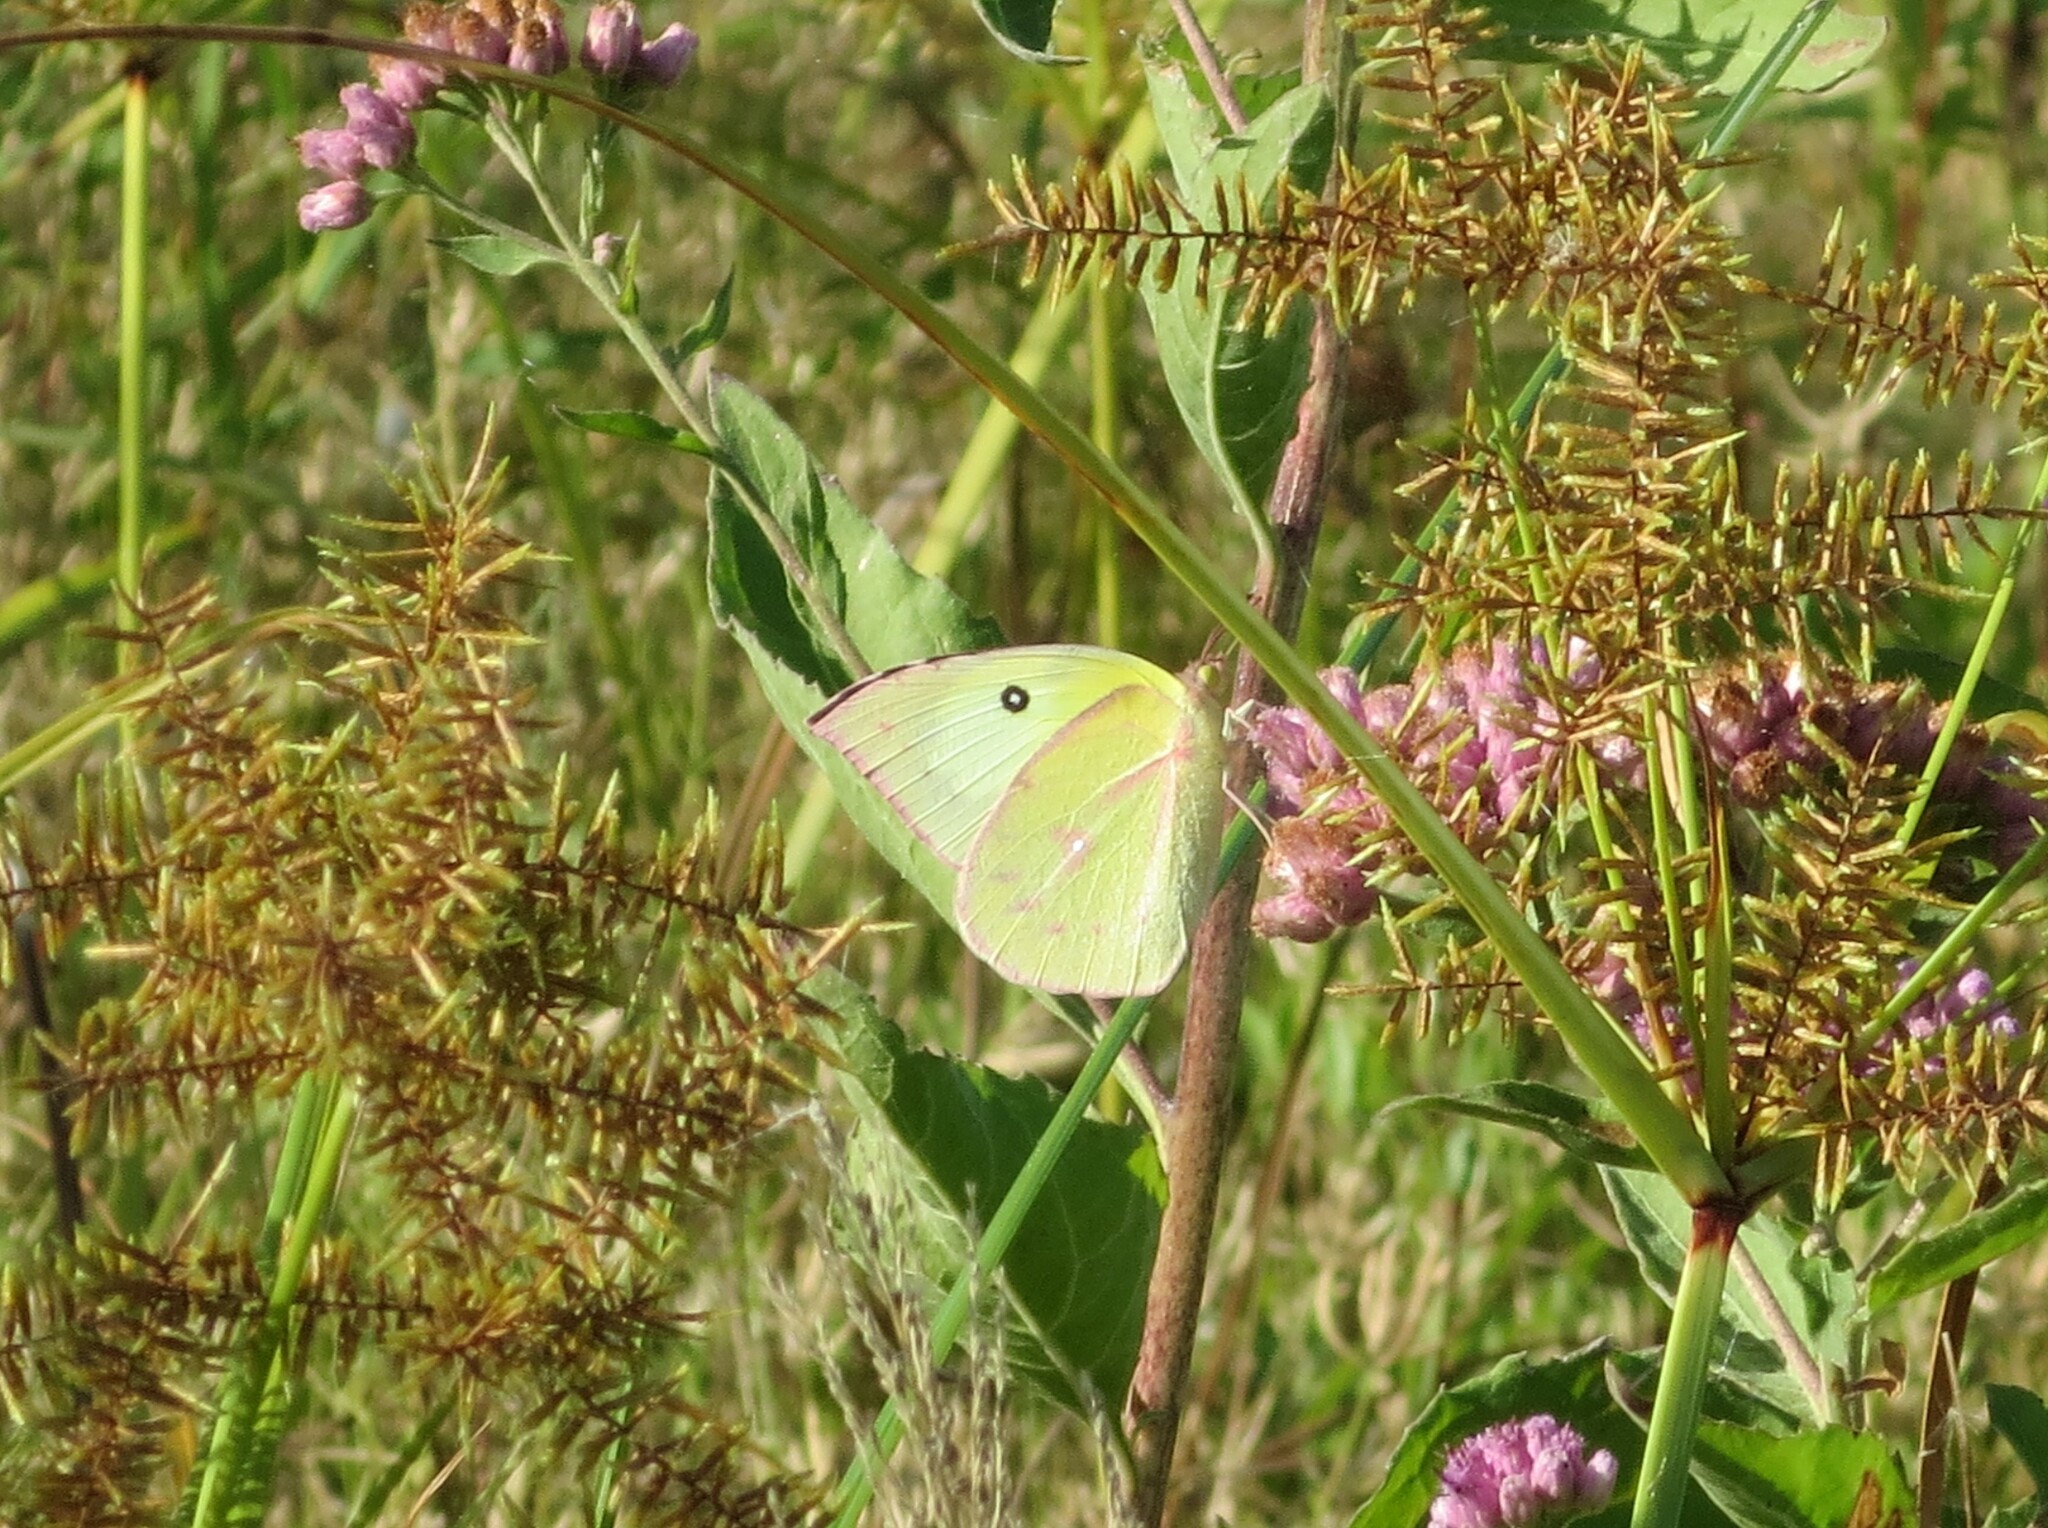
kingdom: Animalia
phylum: Arthropoda
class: Insecta
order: Lepidoptera
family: Pieridae
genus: Zerene
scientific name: Zerene cesonia
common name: Southern dogface
